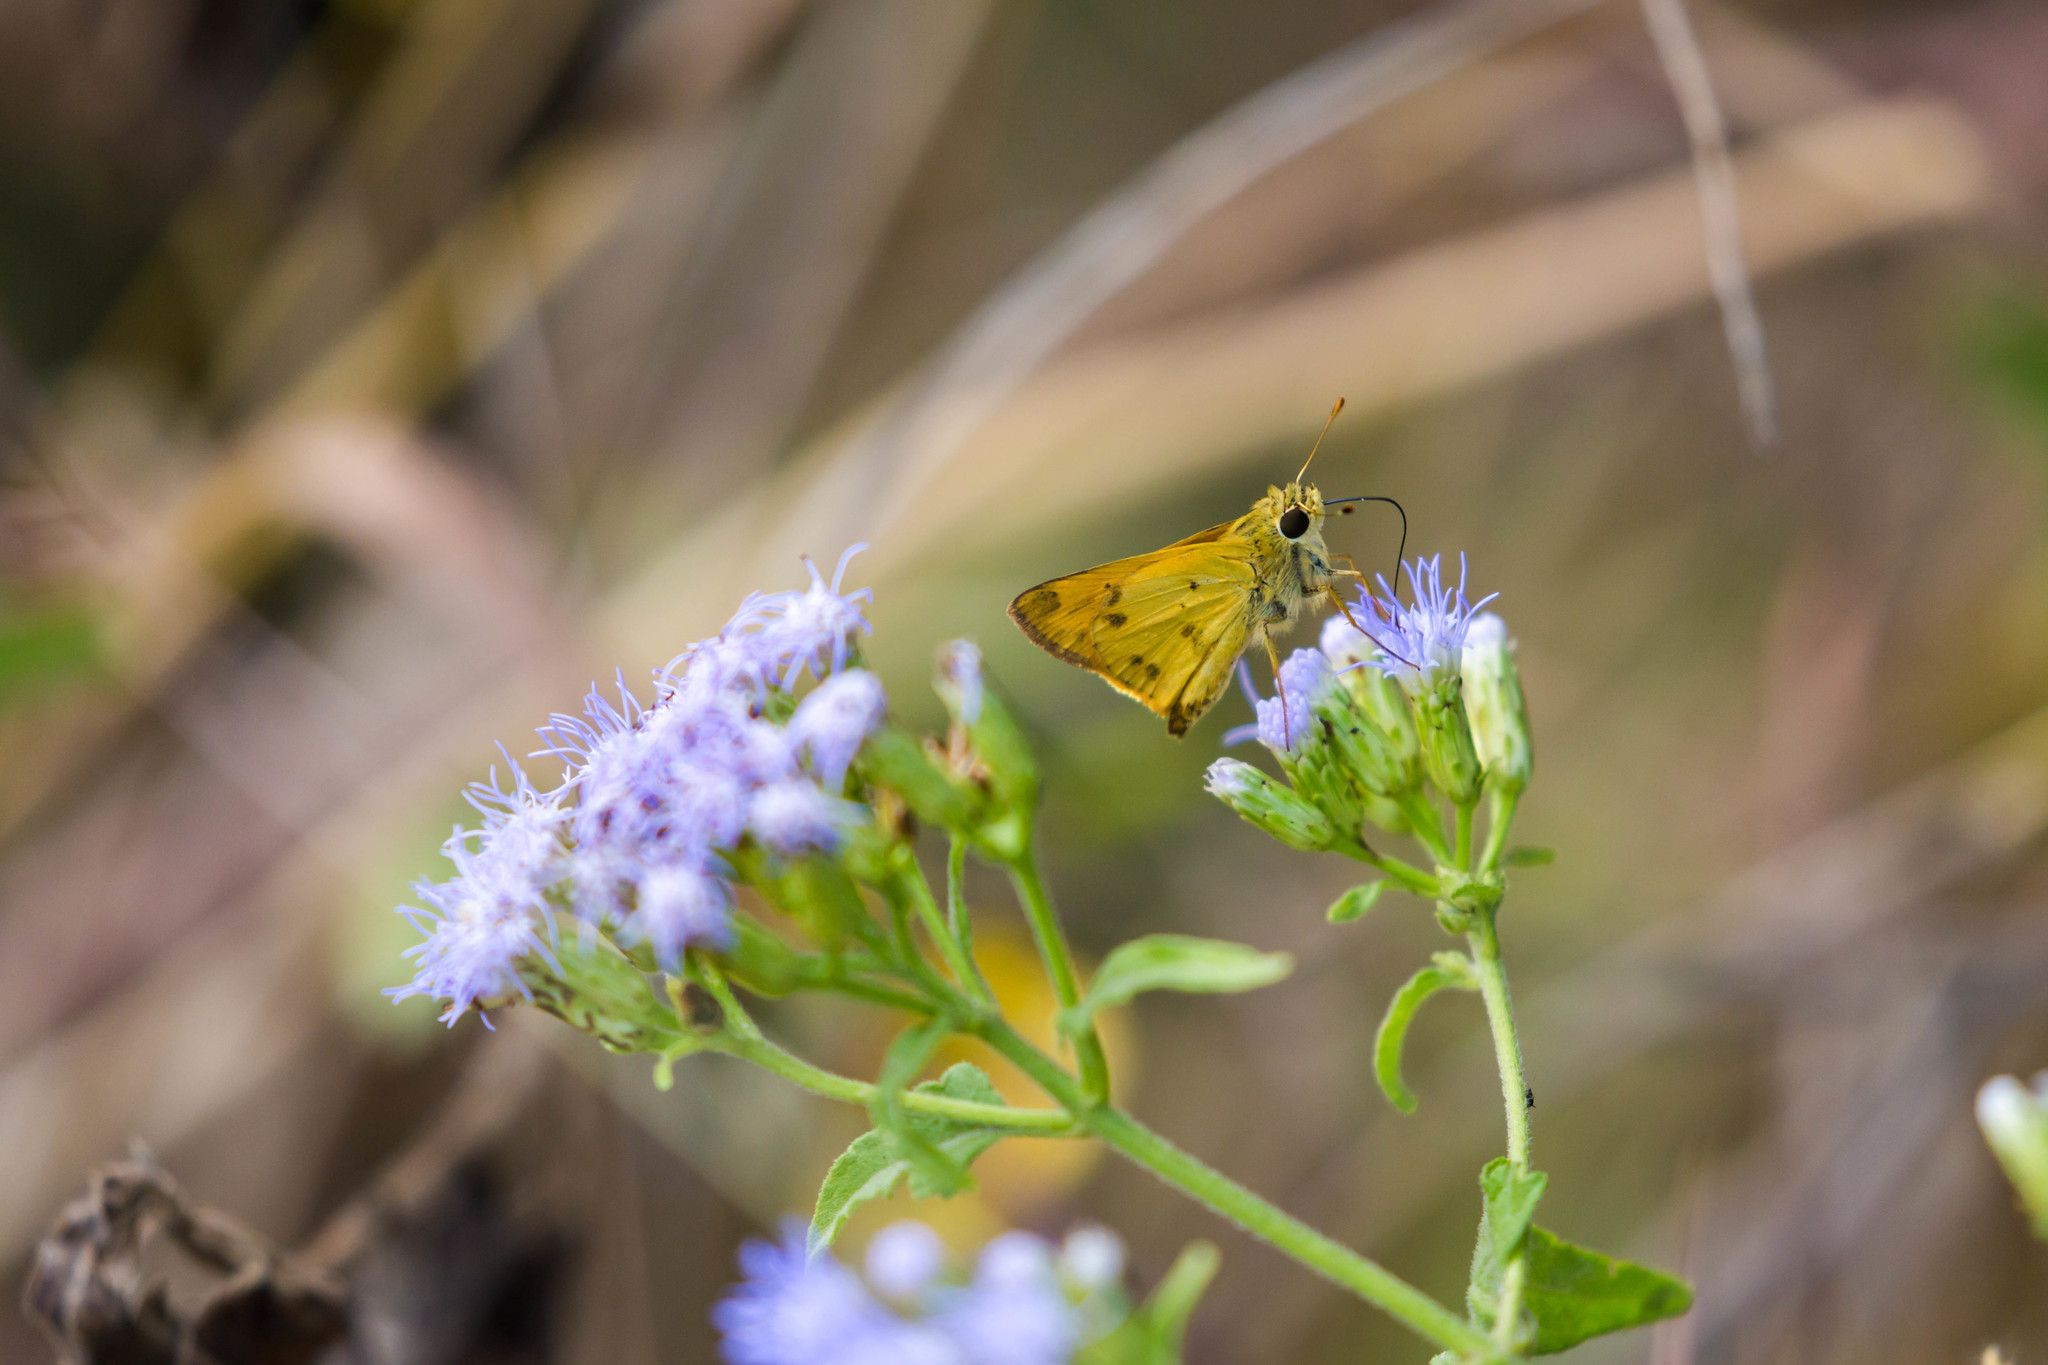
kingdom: Animalia
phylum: Arthropoda
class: Insecta
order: Lepidoptera
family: Hesperiidae
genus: Polites
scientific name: Polites vibex
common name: Whirlabout
